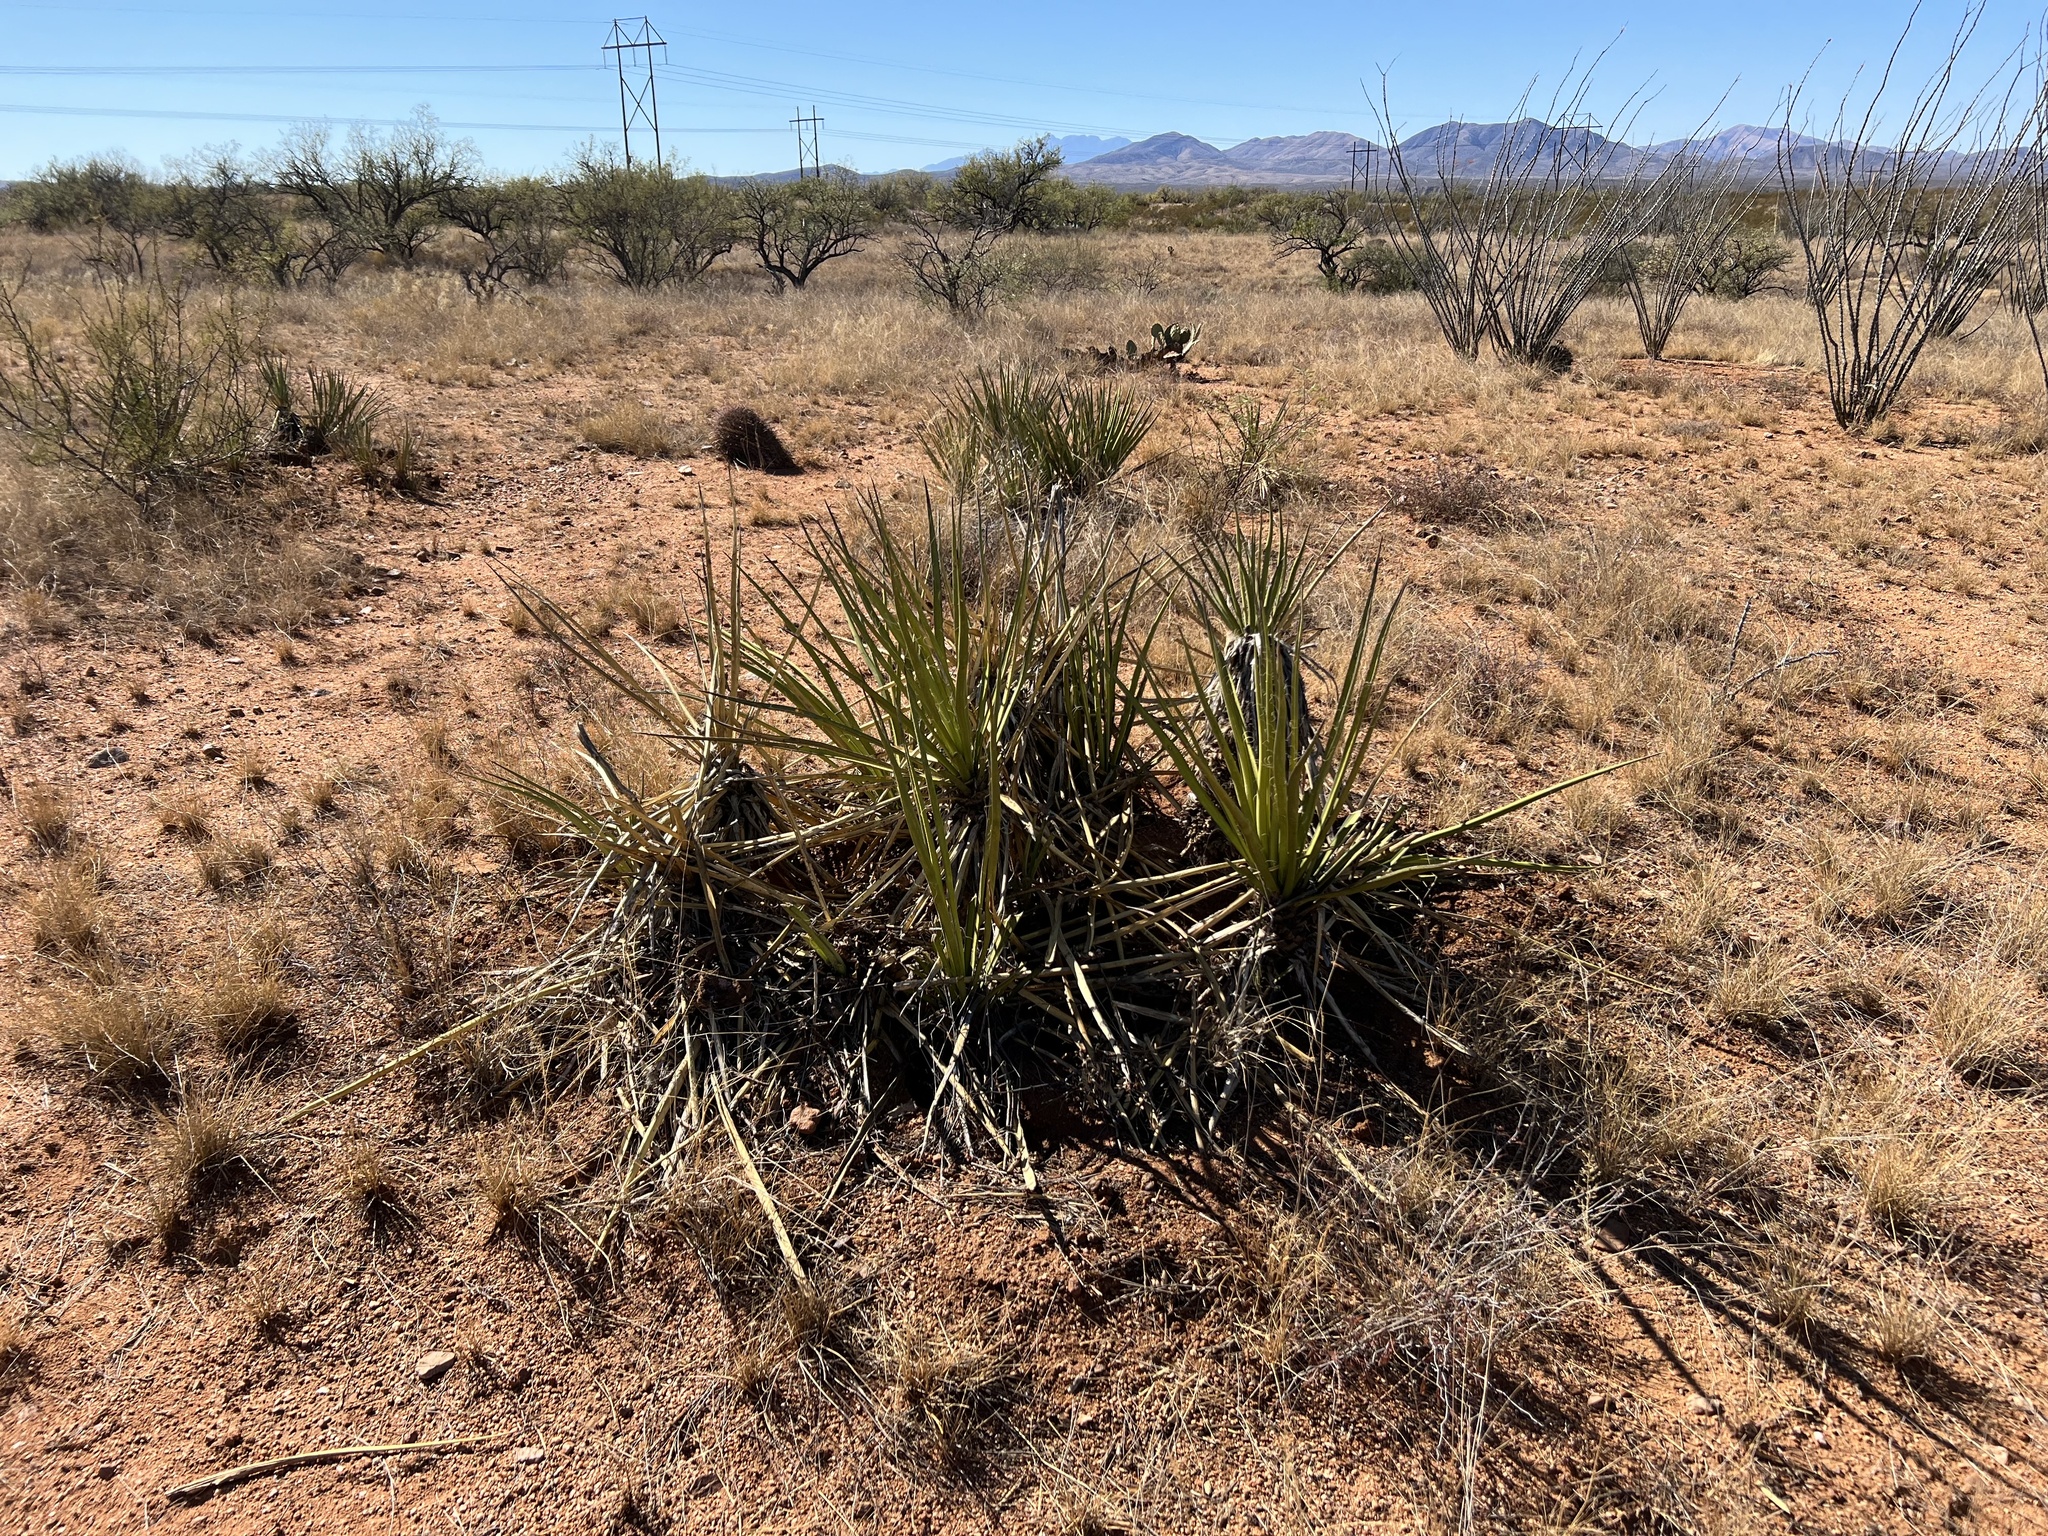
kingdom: Plantae
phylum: Tracheophyta
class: Liliopsida
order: Asparagales
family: Asparagaceae
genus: Yucca
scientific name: Yucca baccata
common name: Banana yucca
